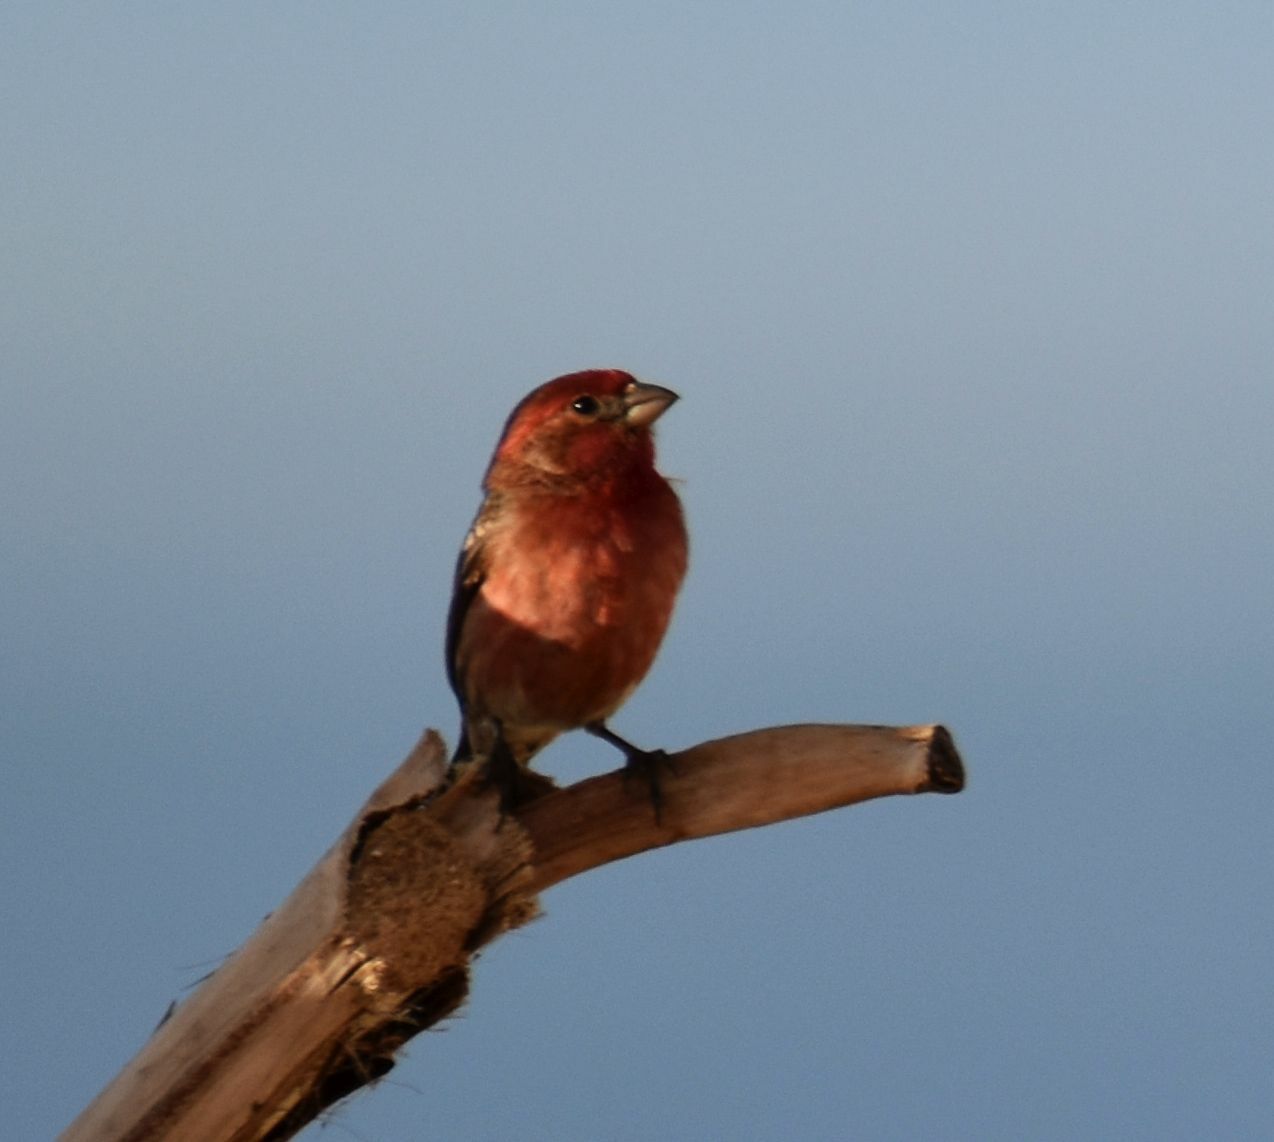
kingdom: Animalia
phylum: Chordata
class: Aves
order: Passeriformes
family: Fringillidae
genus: Haemorhous
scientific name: Haemorhous mexicanus
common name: House finch
